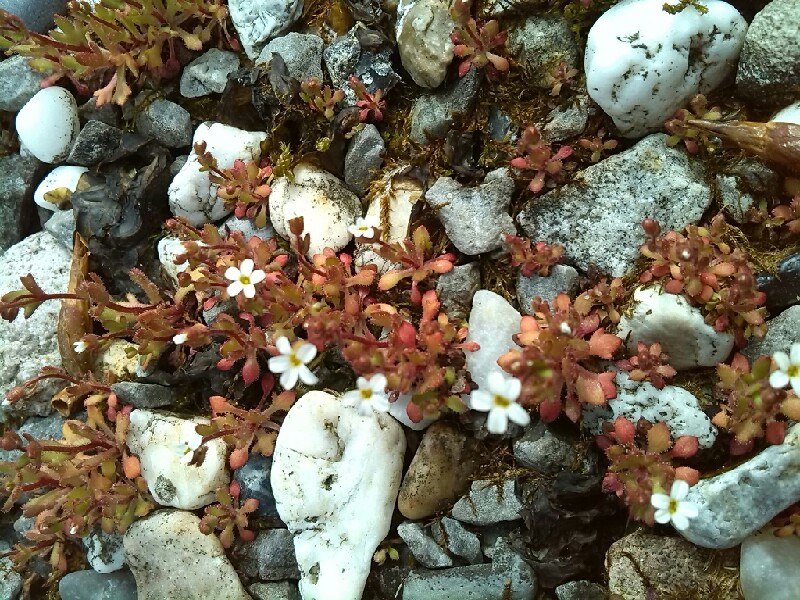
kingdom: Plantae
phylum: Tracheophyta
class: Magnoliopsida
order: Saxifragales
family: Saxifragaceae
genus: Saxifraga
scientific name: Saxifraga tridactylites
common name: Rue-leaved saxifrage
